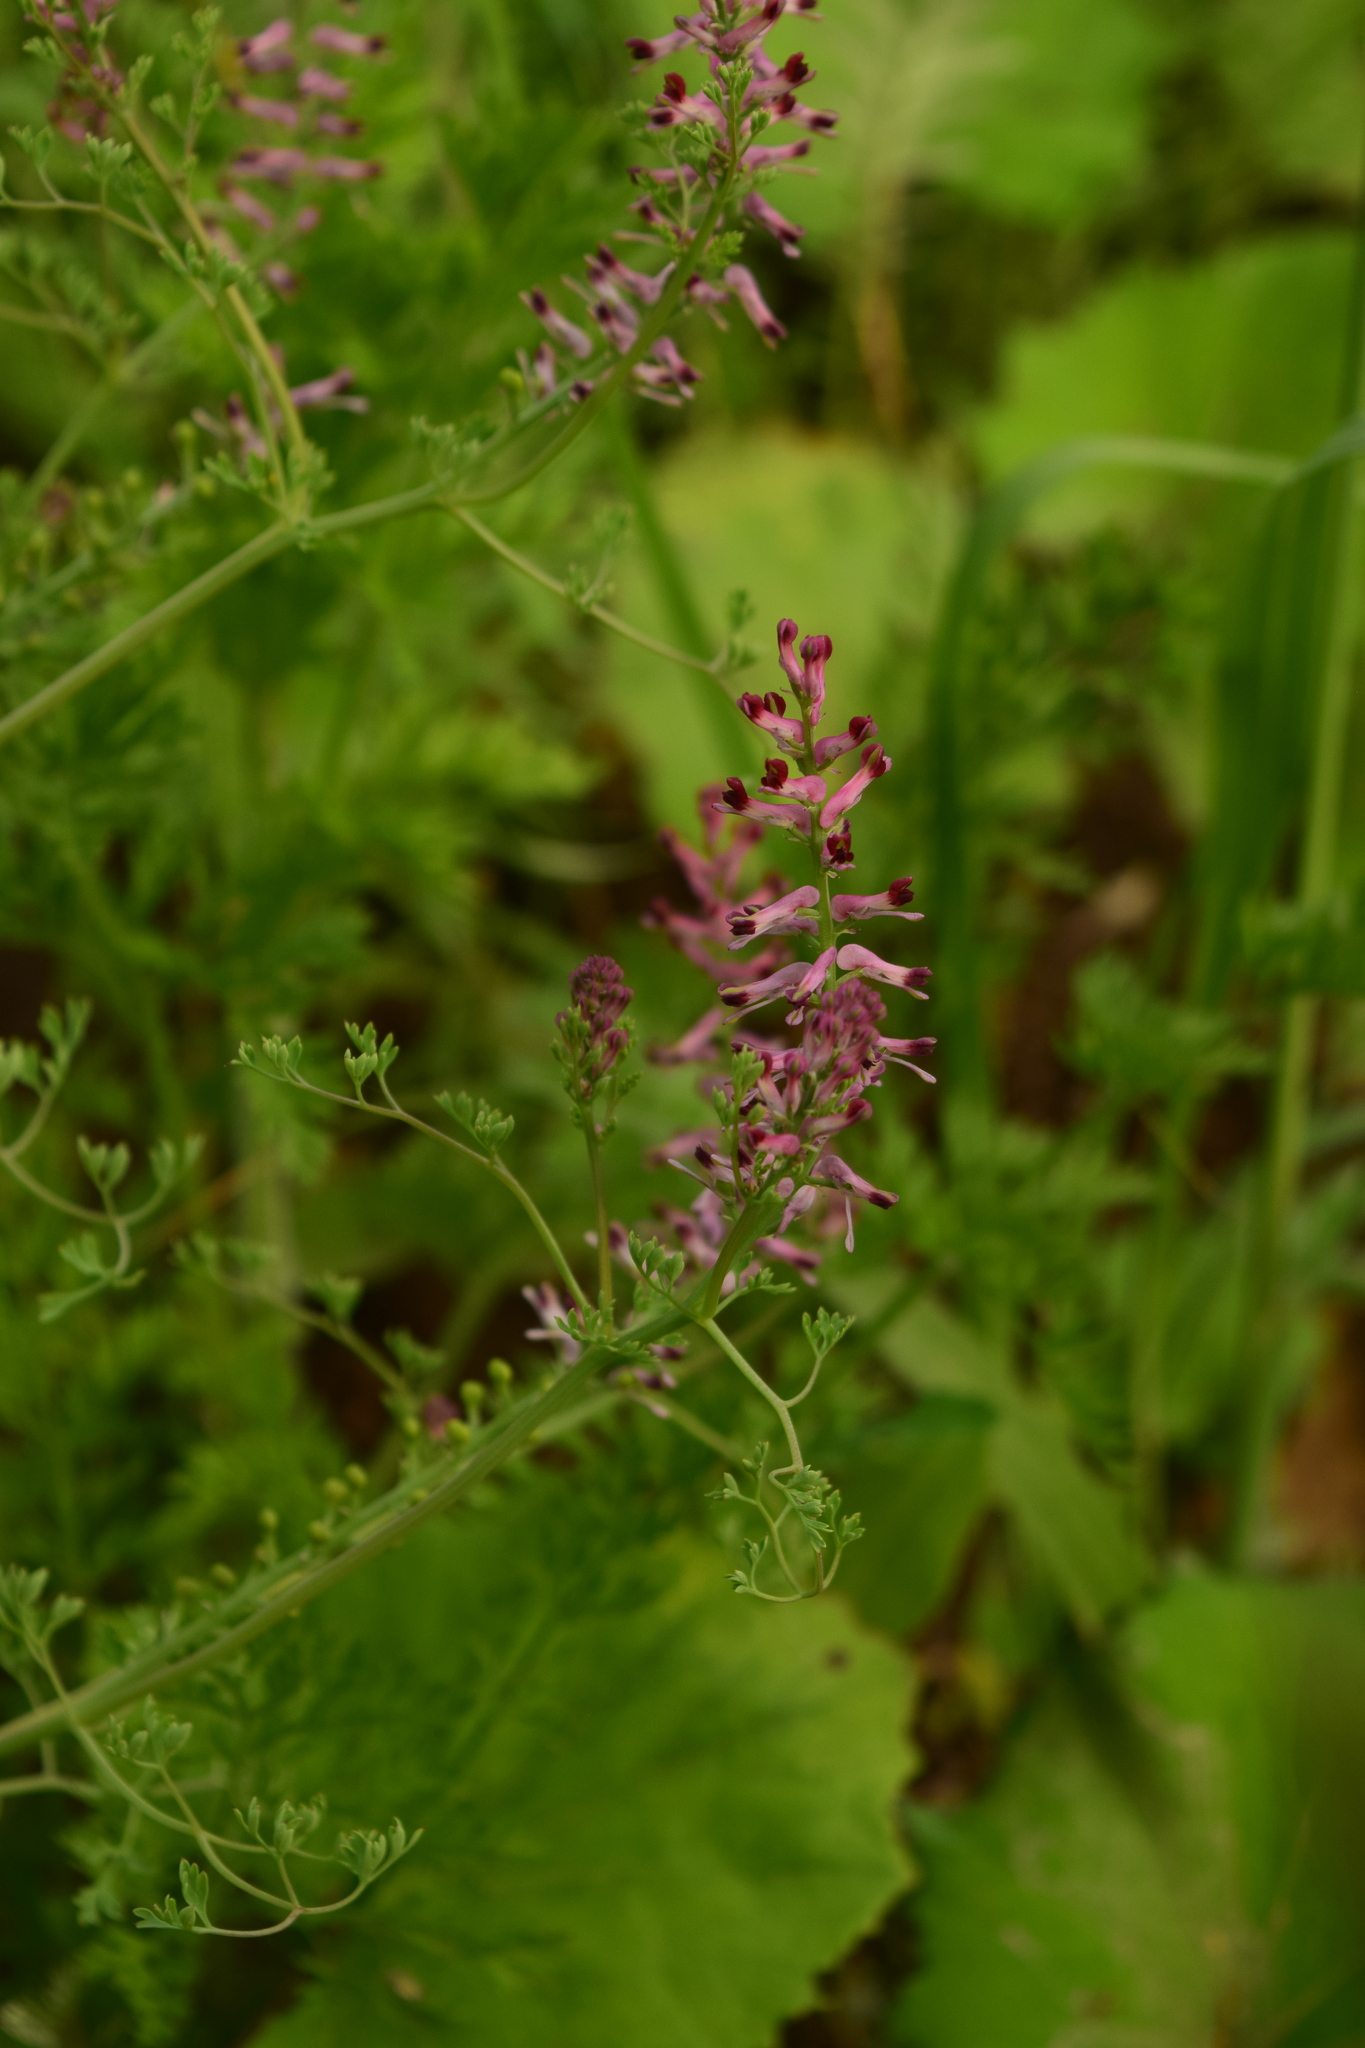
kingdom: Plantae
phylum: Tracheophyta
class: Magnoliopsida
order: Ranunculales
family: Papaveraceae
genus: Fumaria
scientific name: Fumaria officinalis
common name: Common fumitory
